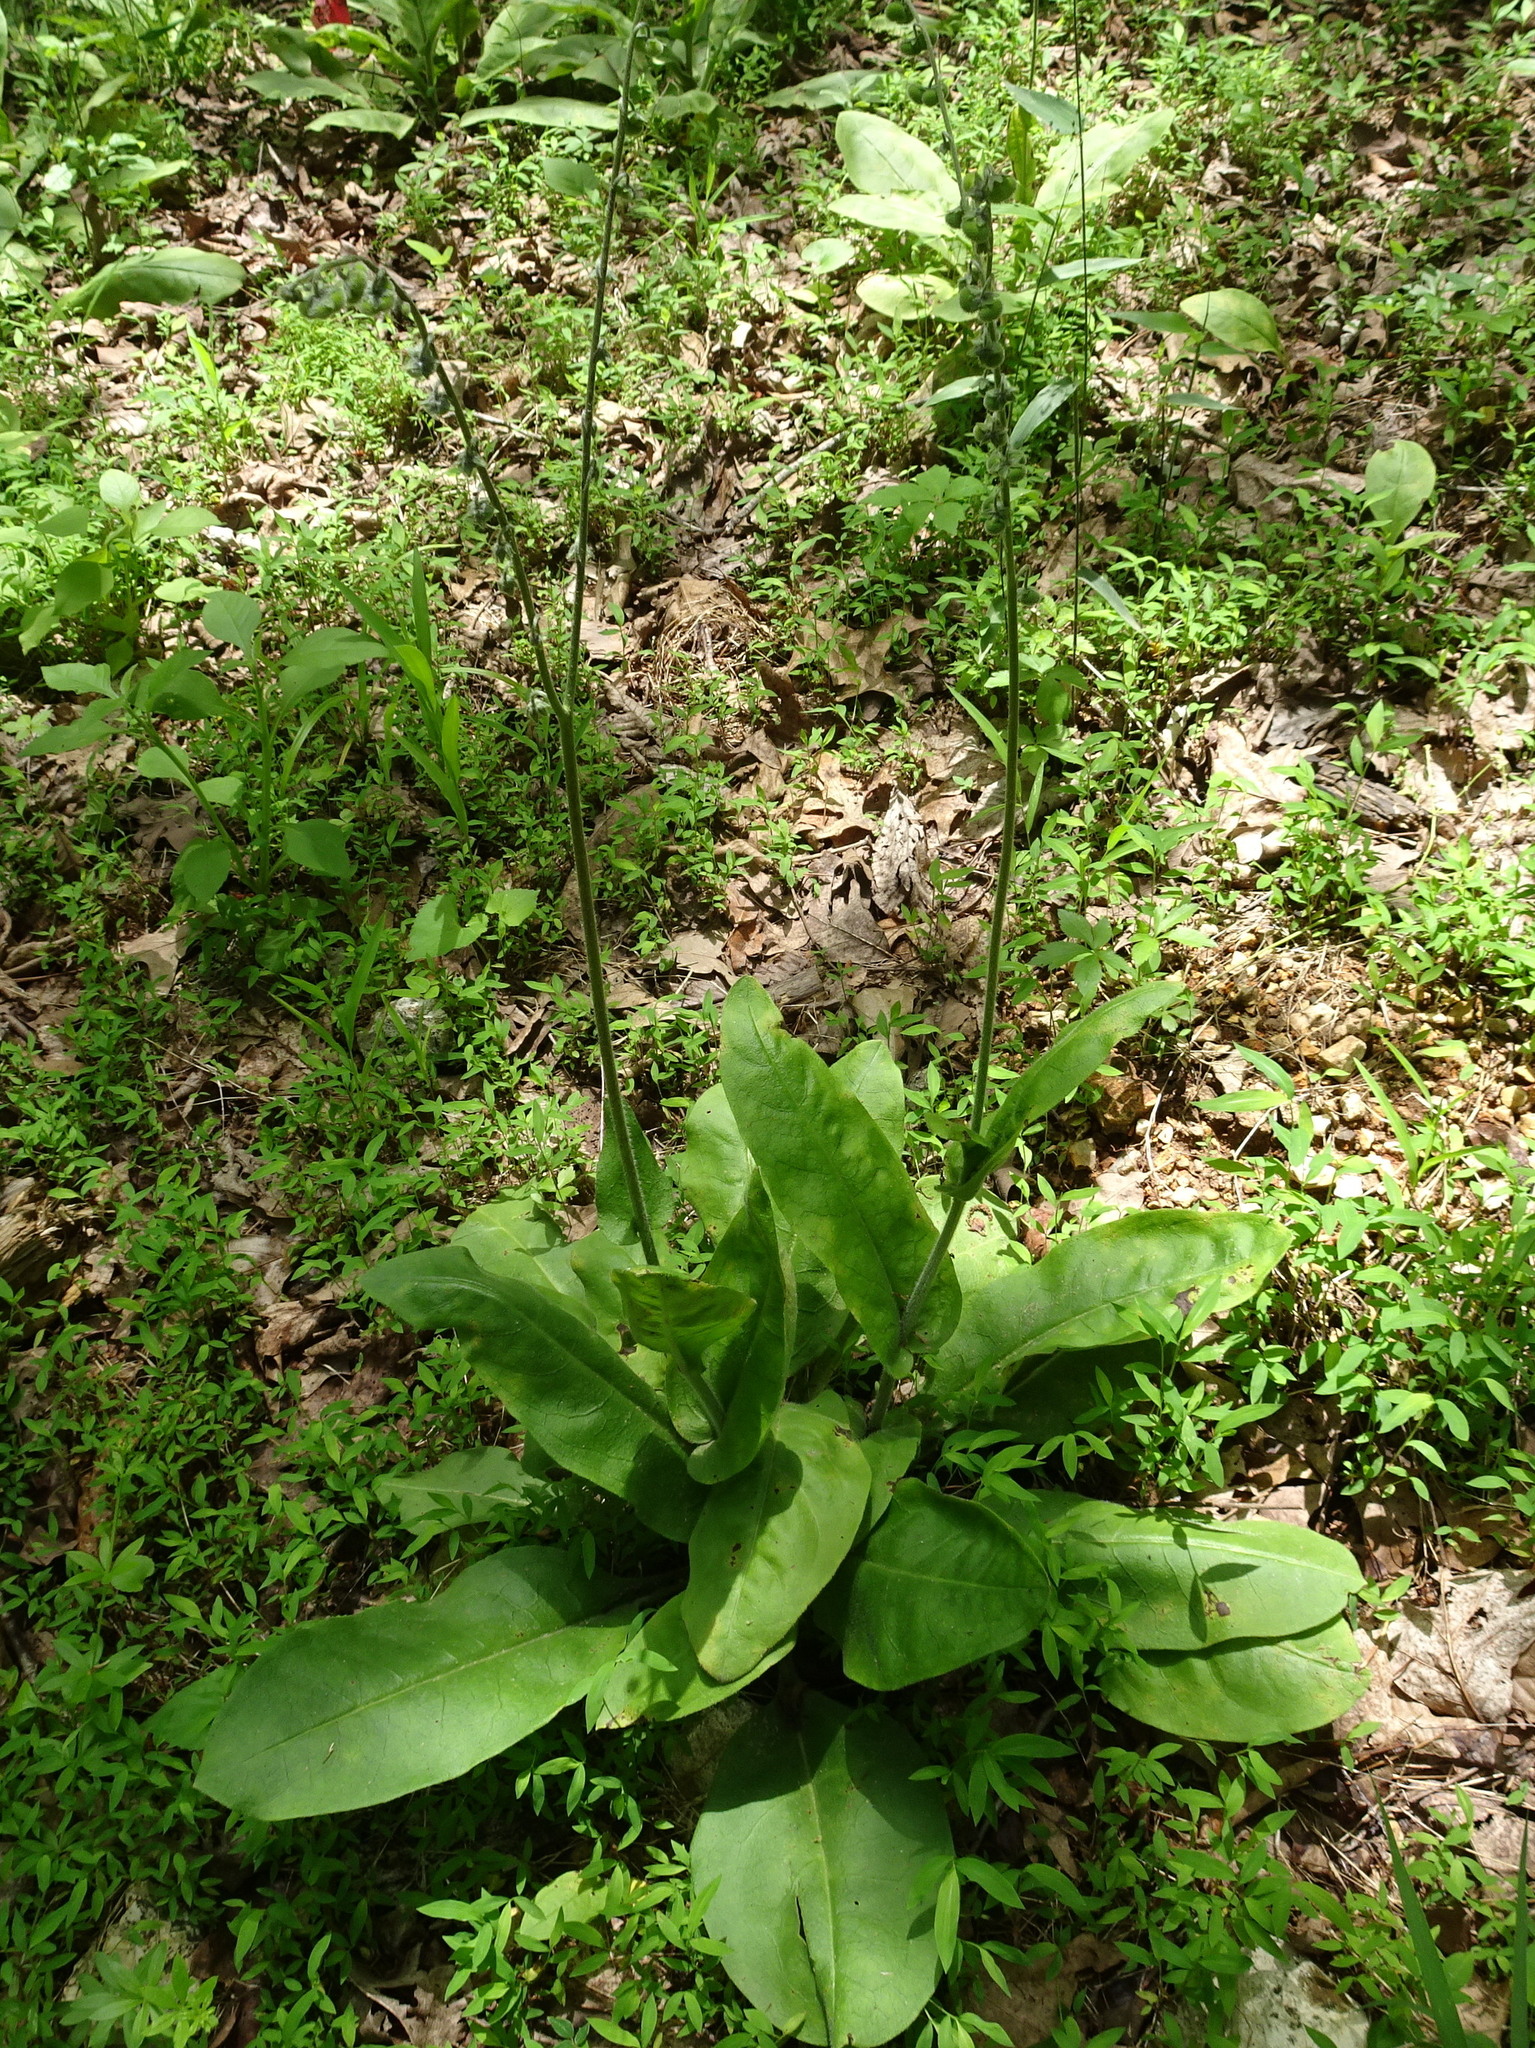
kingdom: Plantae
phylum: Tracheophyta
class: Magnoliopsida
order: Boraginales
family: Boraginaceae
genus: Andersonglossum
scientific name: Andersonglossum virginianum
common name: Wild comfrey
